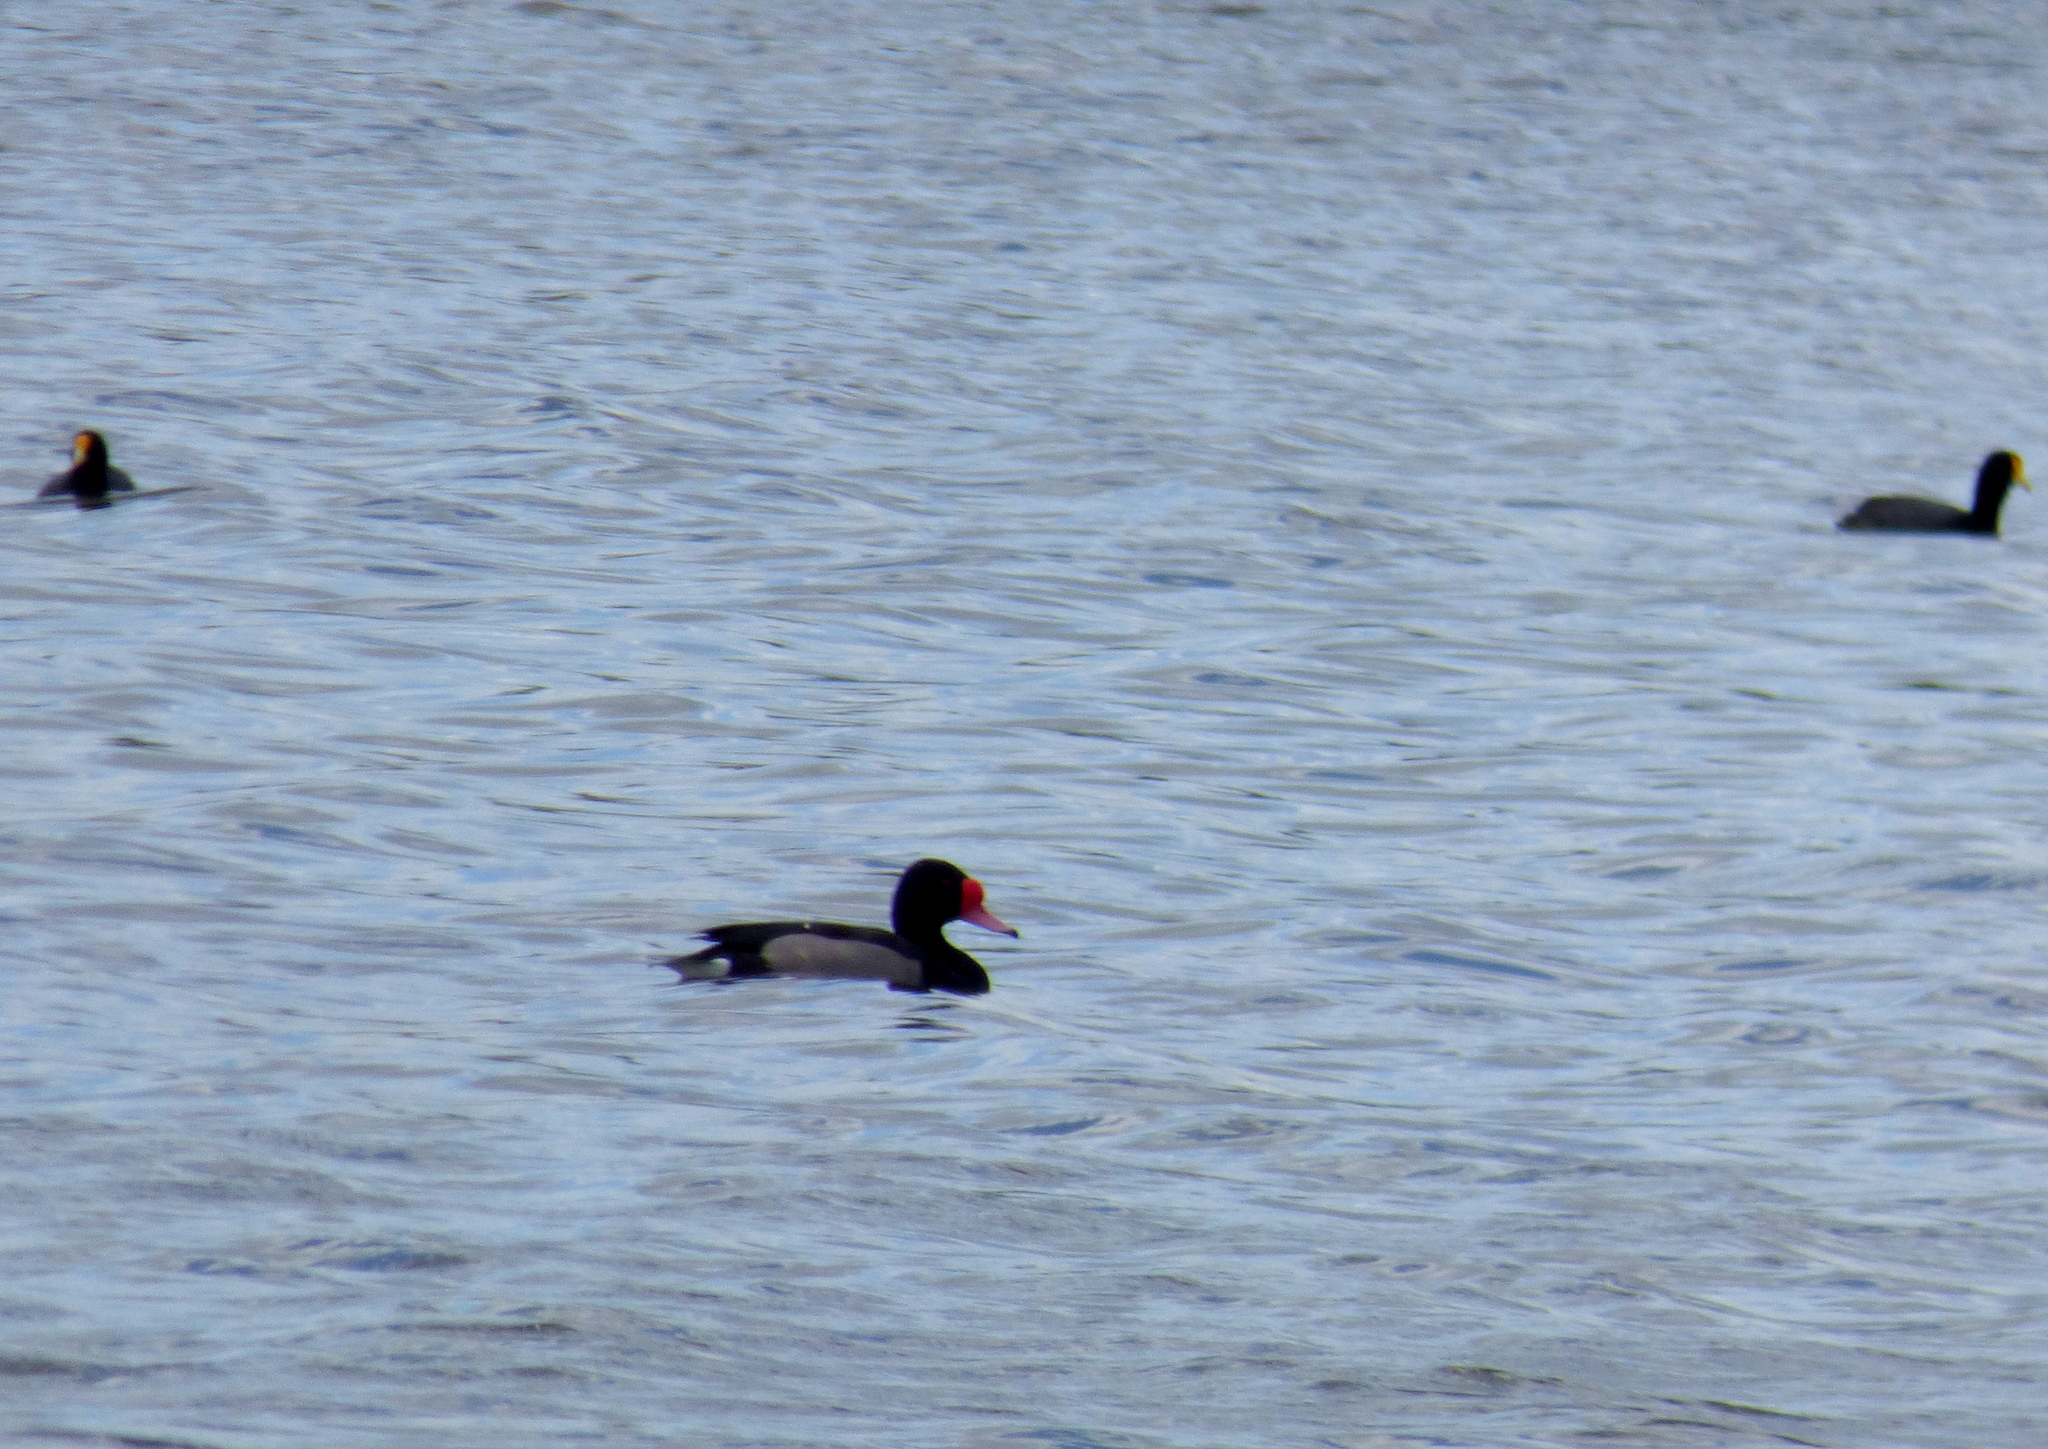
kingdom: Animalia
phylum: Chordata
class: Aves
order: Anseriformes
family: Anatidae
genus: Netta
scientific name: Netta peposaca
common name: Rosy-billed pochard
